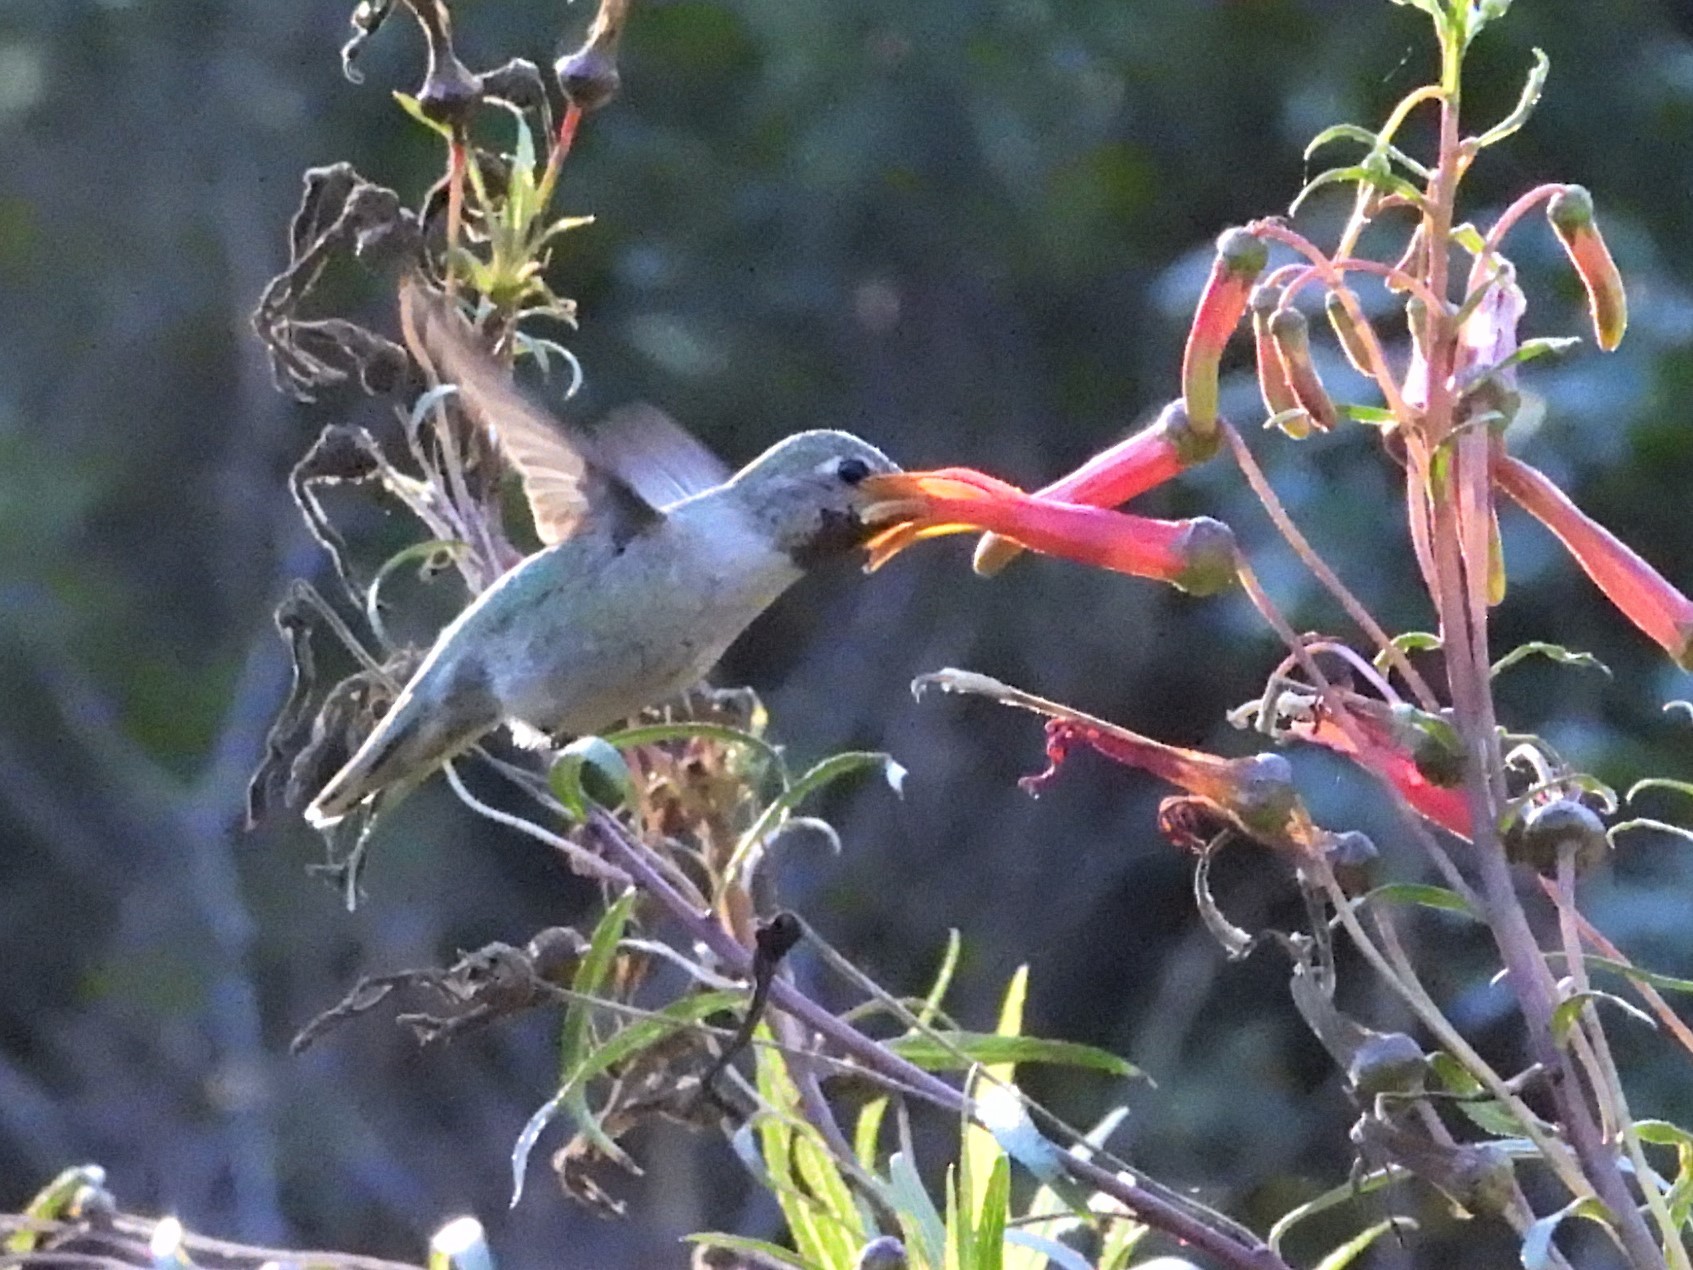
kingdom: Animalia
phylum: Chordata
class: Aves
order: Apodiformes
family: Trochilidae
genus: Calypte
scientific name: Calypte anna
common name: Anna's hummingbird
